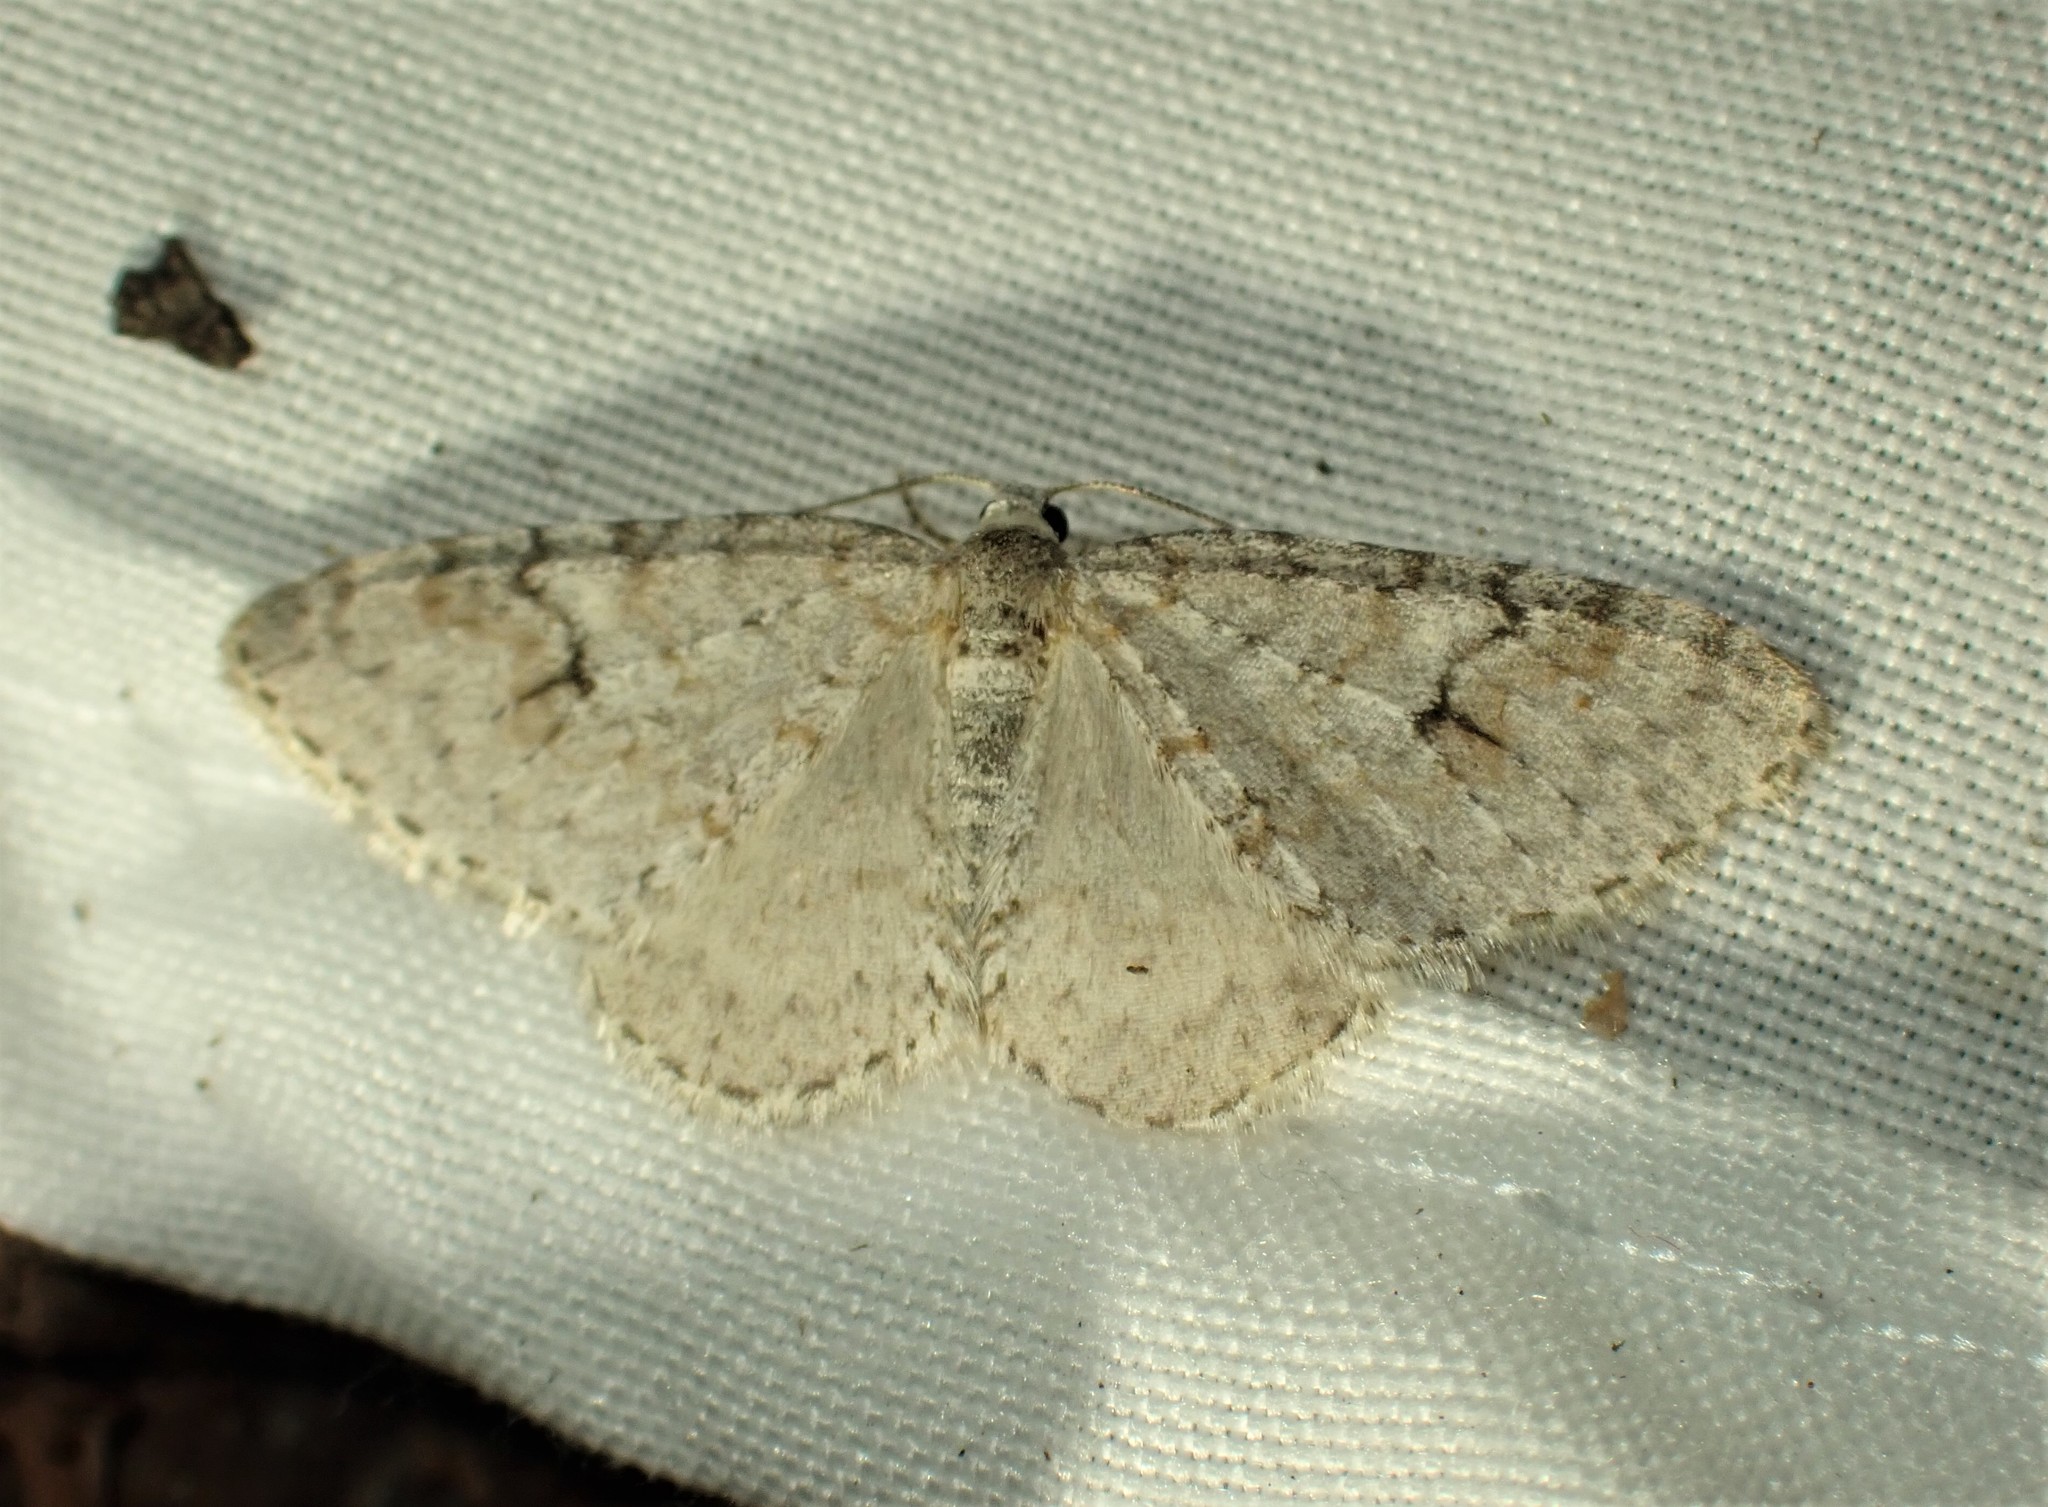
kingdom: Animalia
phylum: Arthropoda
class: Insecta
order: Lepidoptera
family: Geometridae
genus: Venusia
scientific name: Venusia comptaria
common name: Brown-shaded carpet
